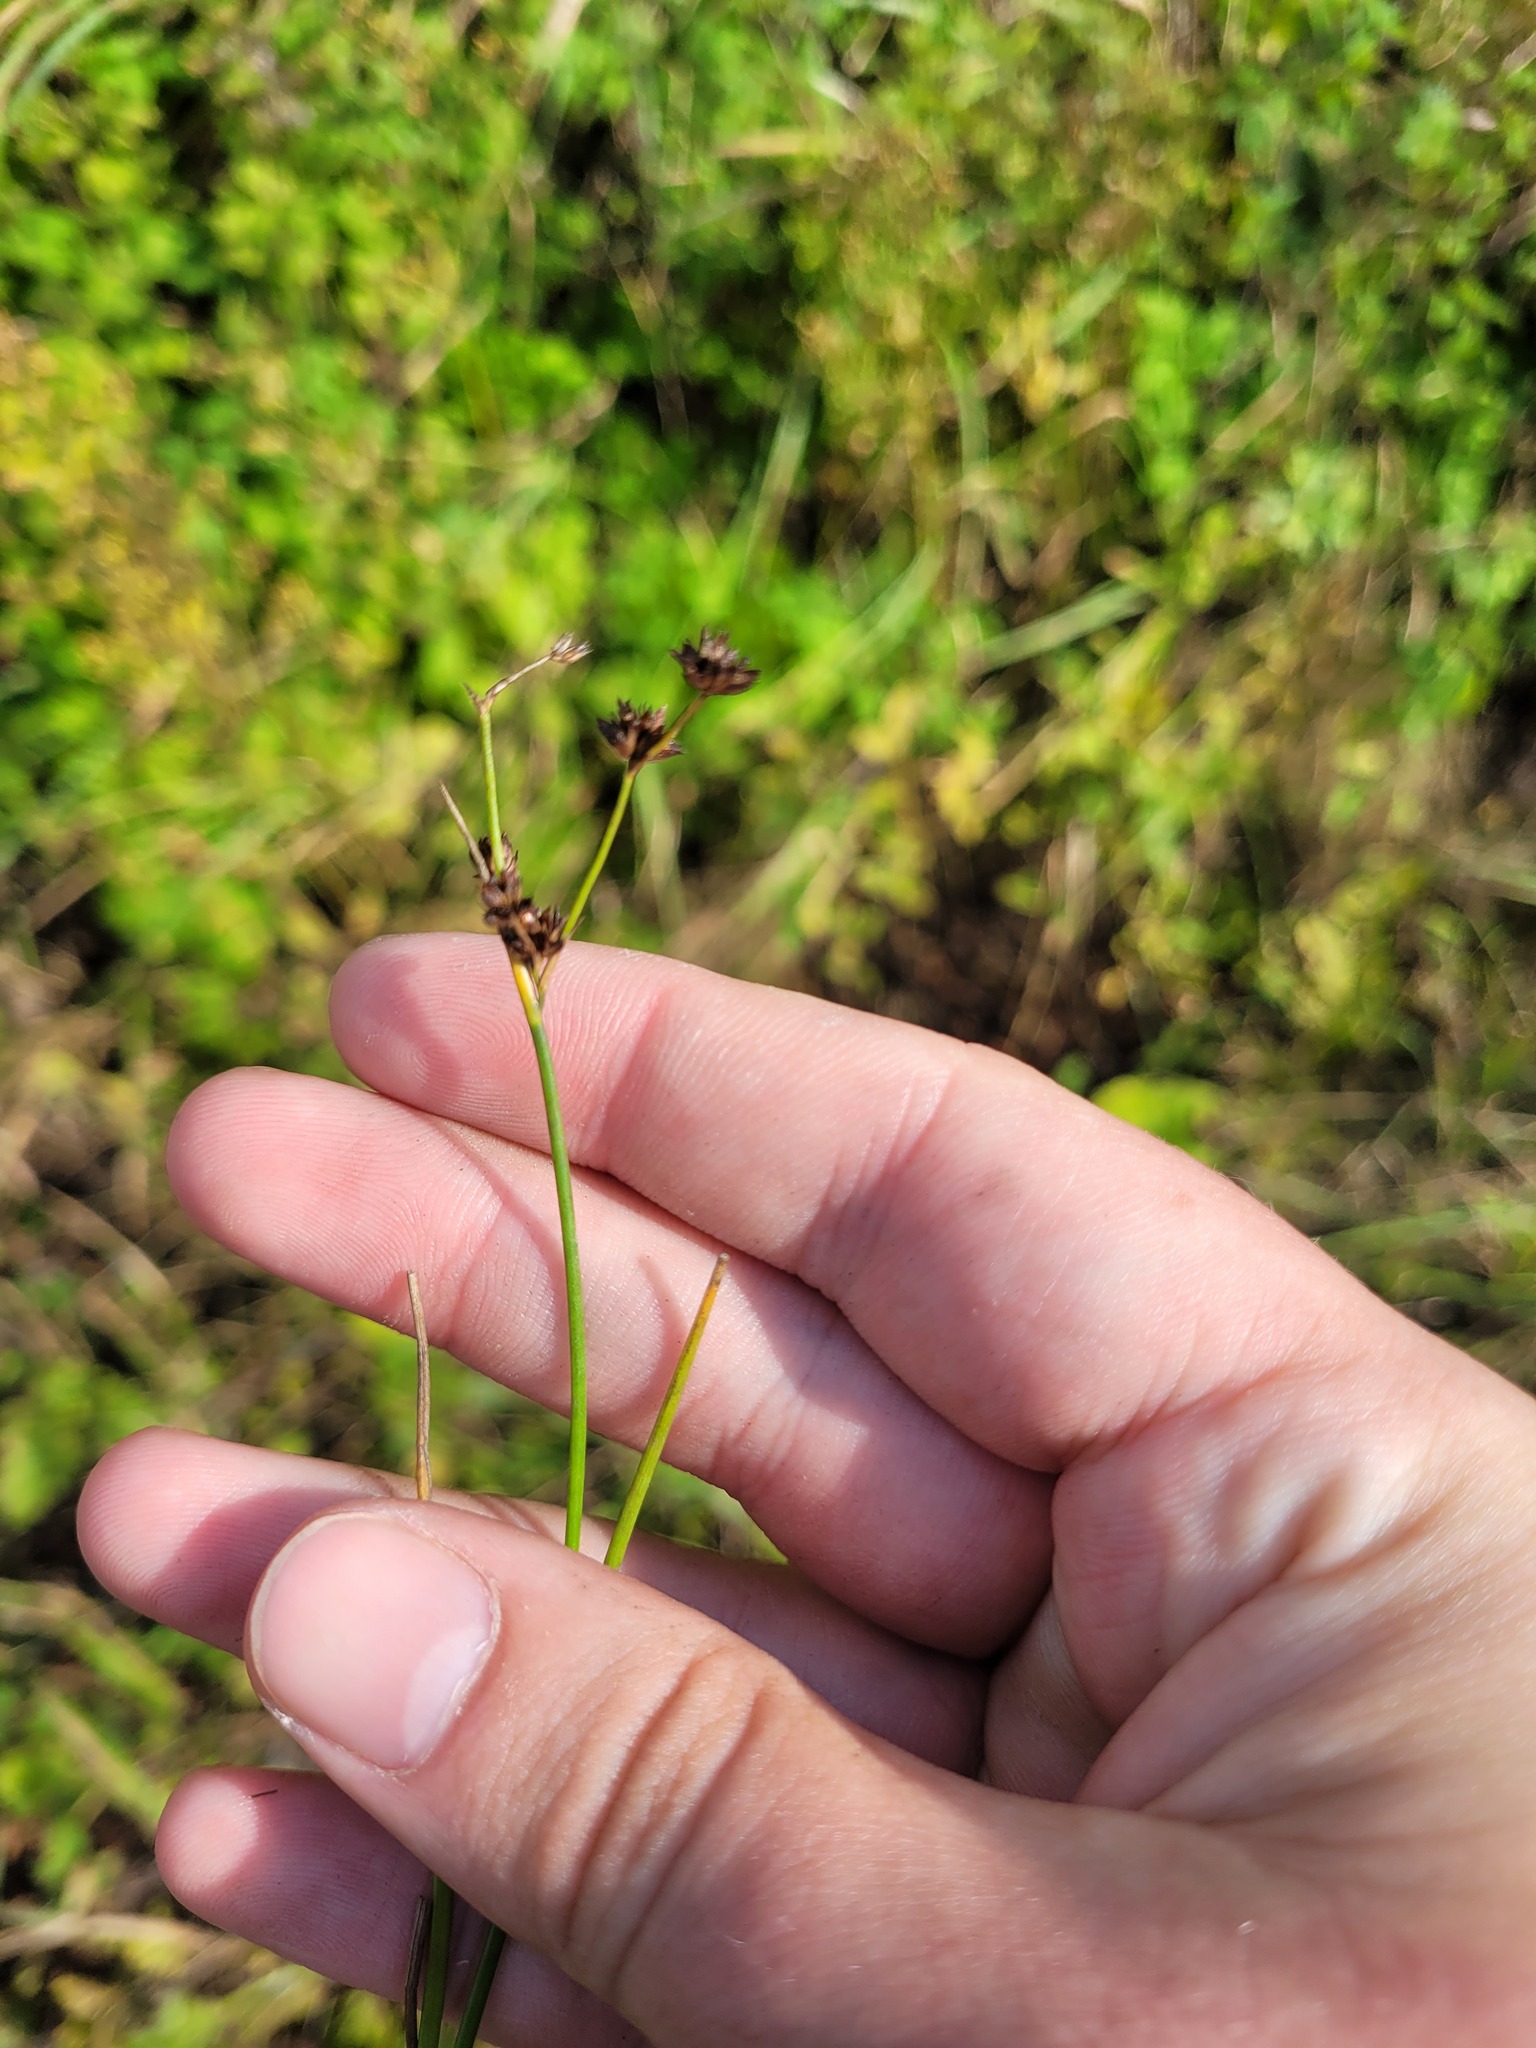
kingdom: Plantae
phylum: Tracheophyta
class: Liliopsida
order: Poales
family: Juncaceae
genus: Juncus
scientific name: Juncus articulatus
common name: Jointed rush
